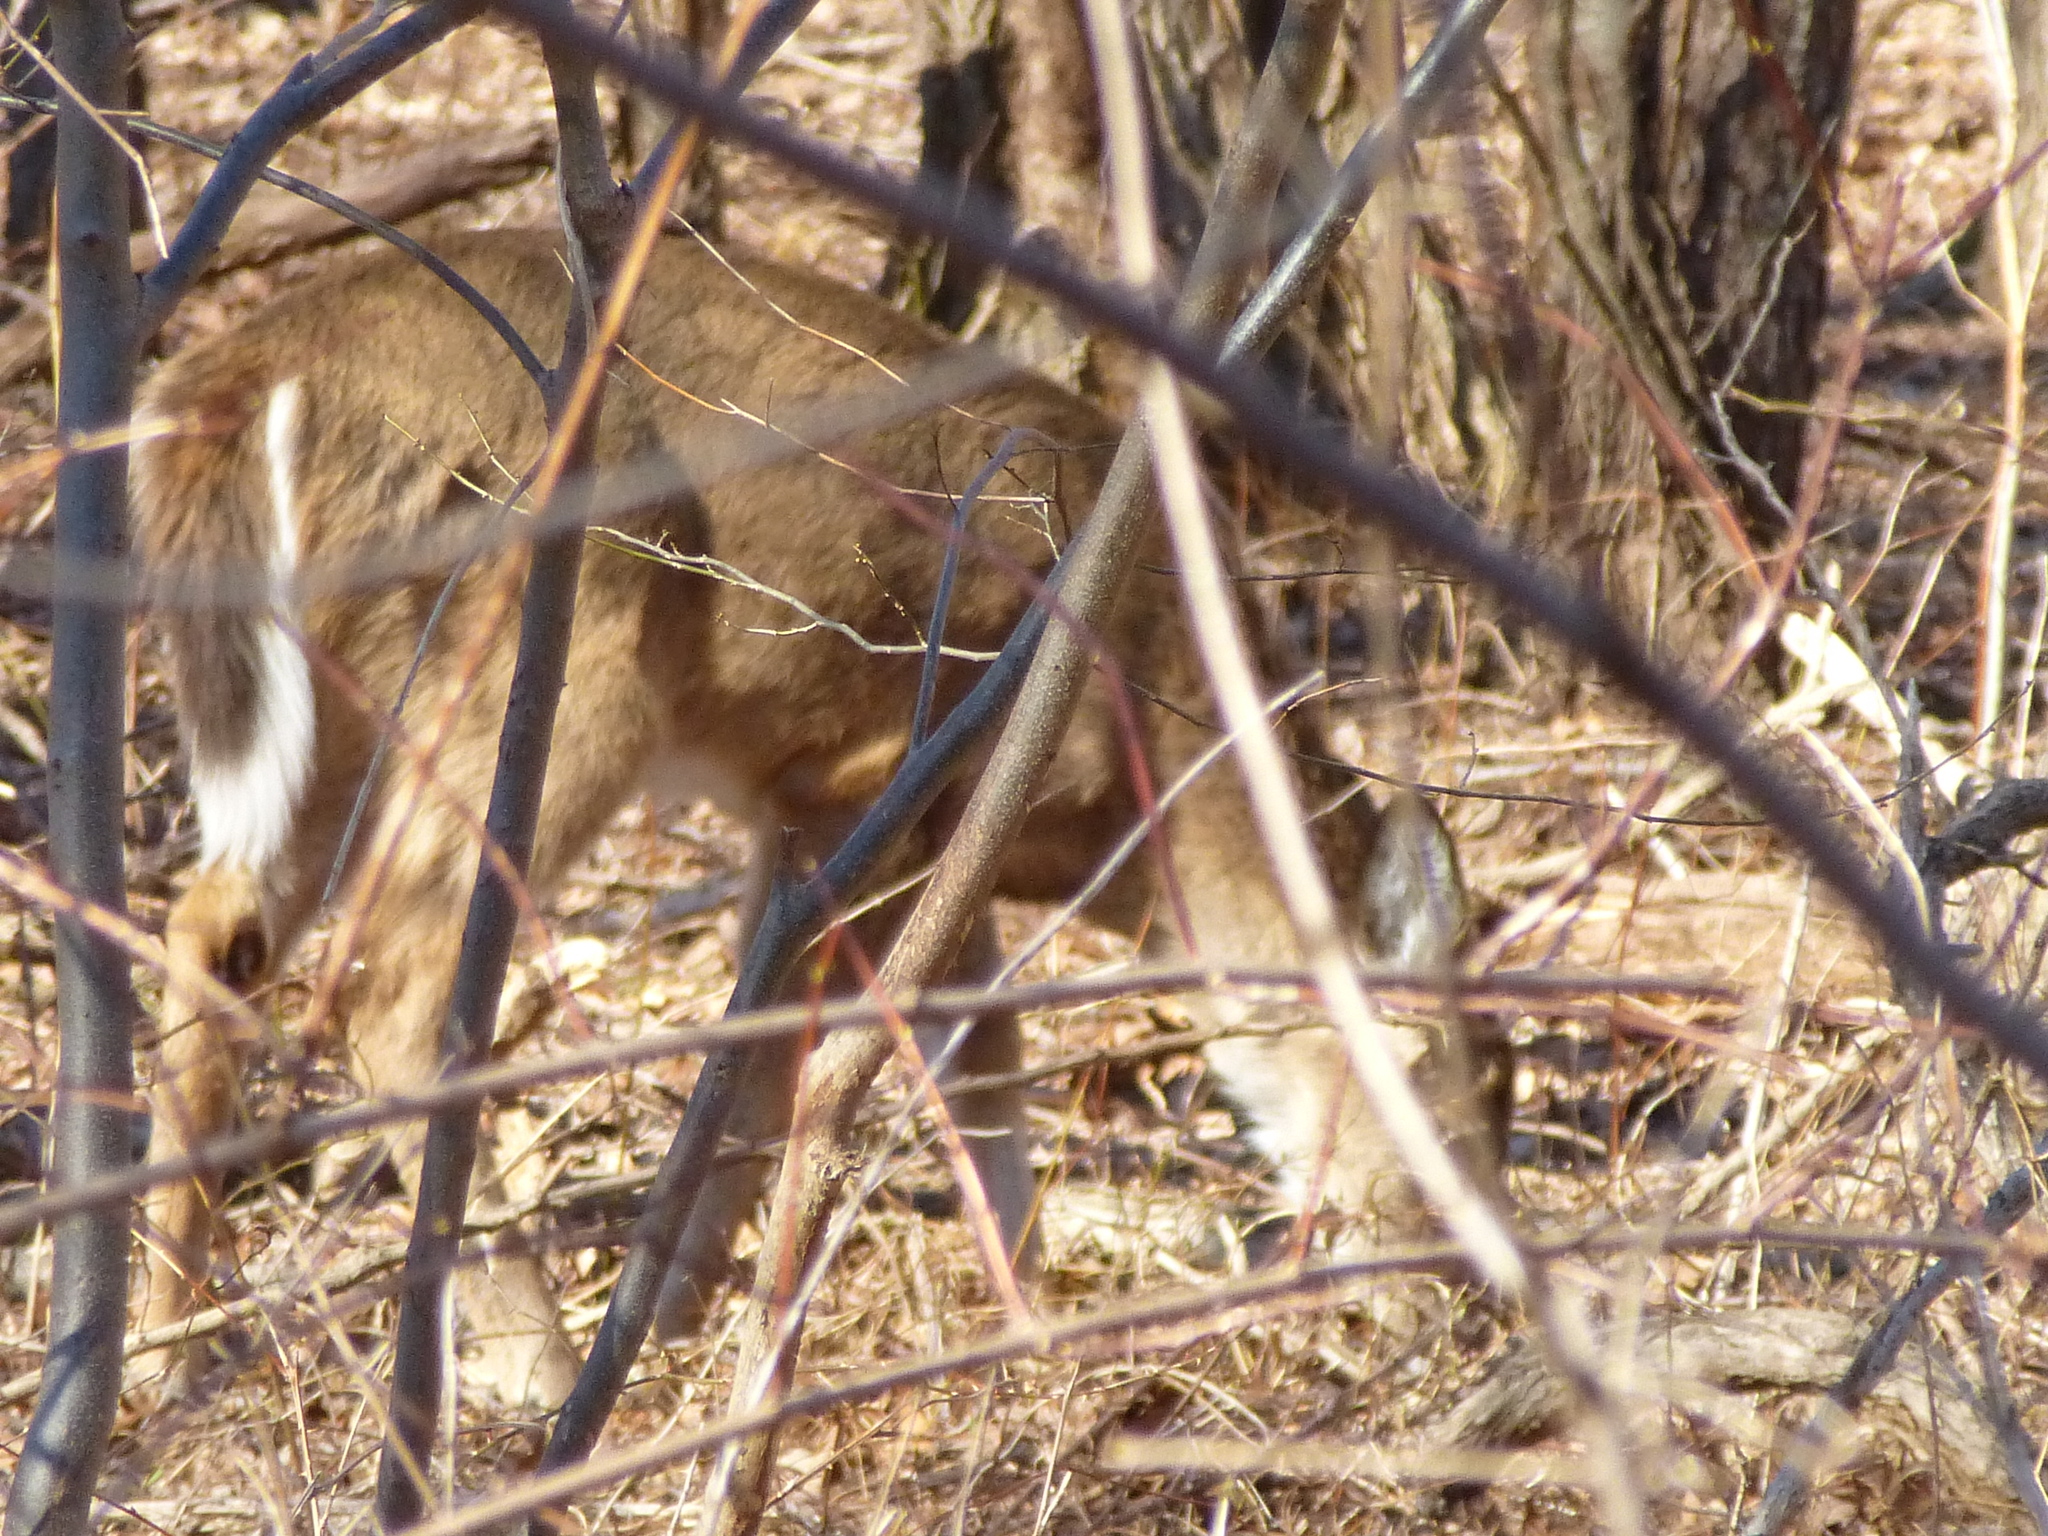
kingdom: Animalia
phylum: Chordata
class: Mammalia
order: Artiodactyla
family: Cervidae
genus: Odocoileus
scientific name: Odocoileus virginianus
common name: White-tailed deer
